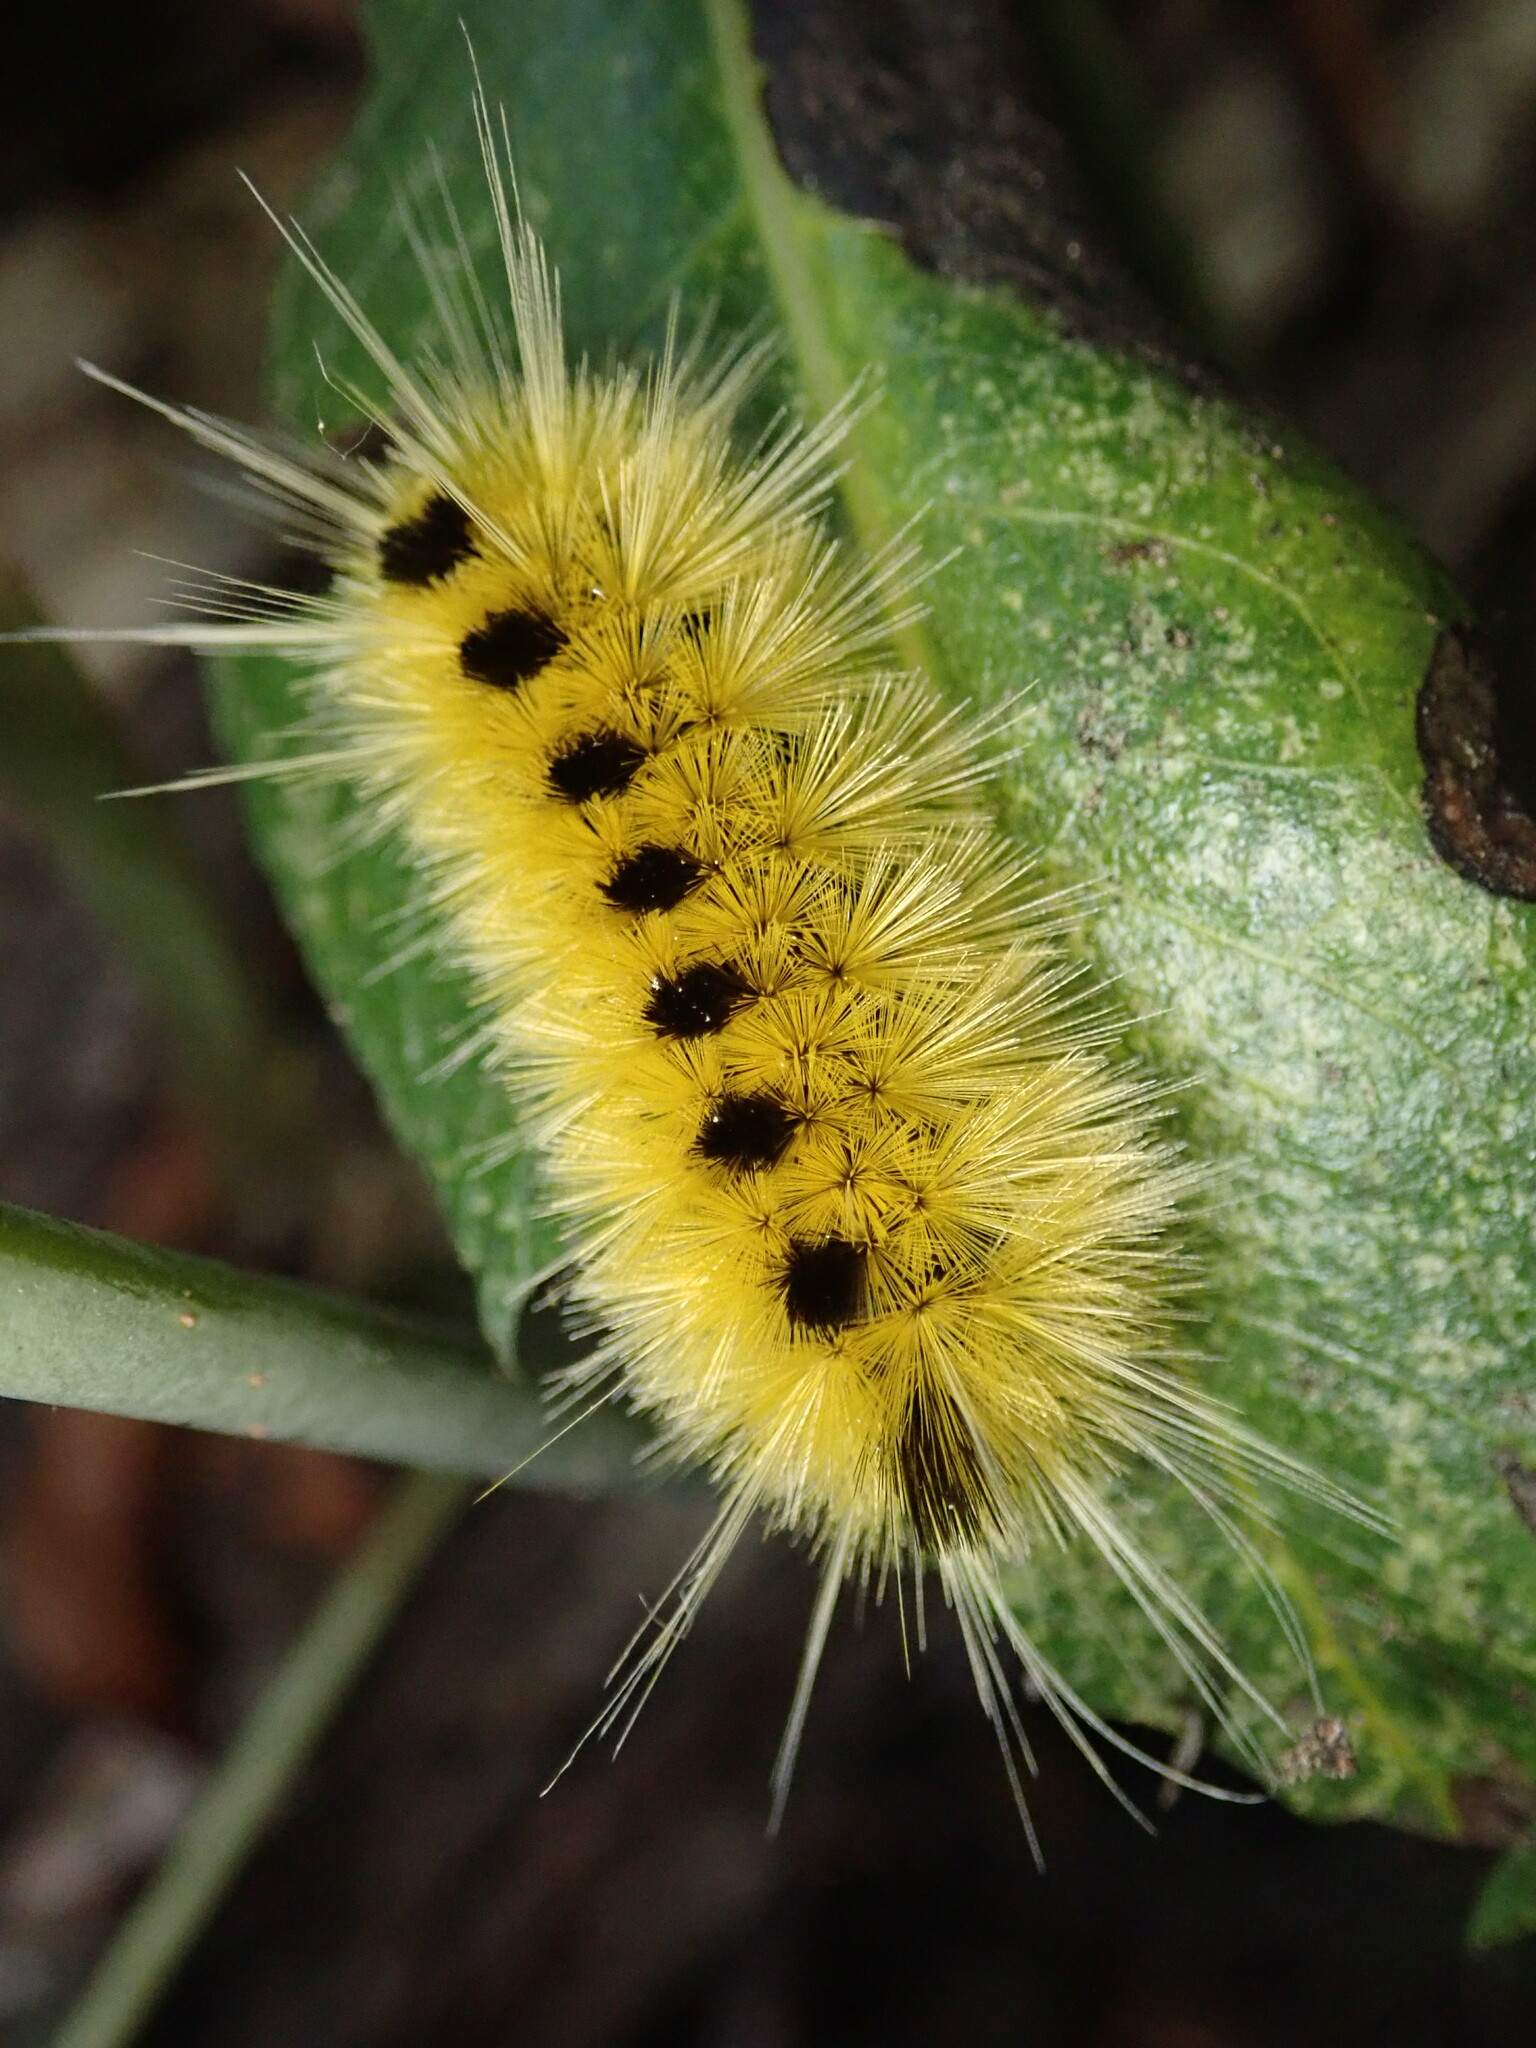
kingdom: Animalia
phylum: Arthropoda
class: Insecta
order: Lepidoptera
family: Erebidae
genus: Lophocampa
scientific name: Lophocampa maculata
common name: Spotted tussock moth
